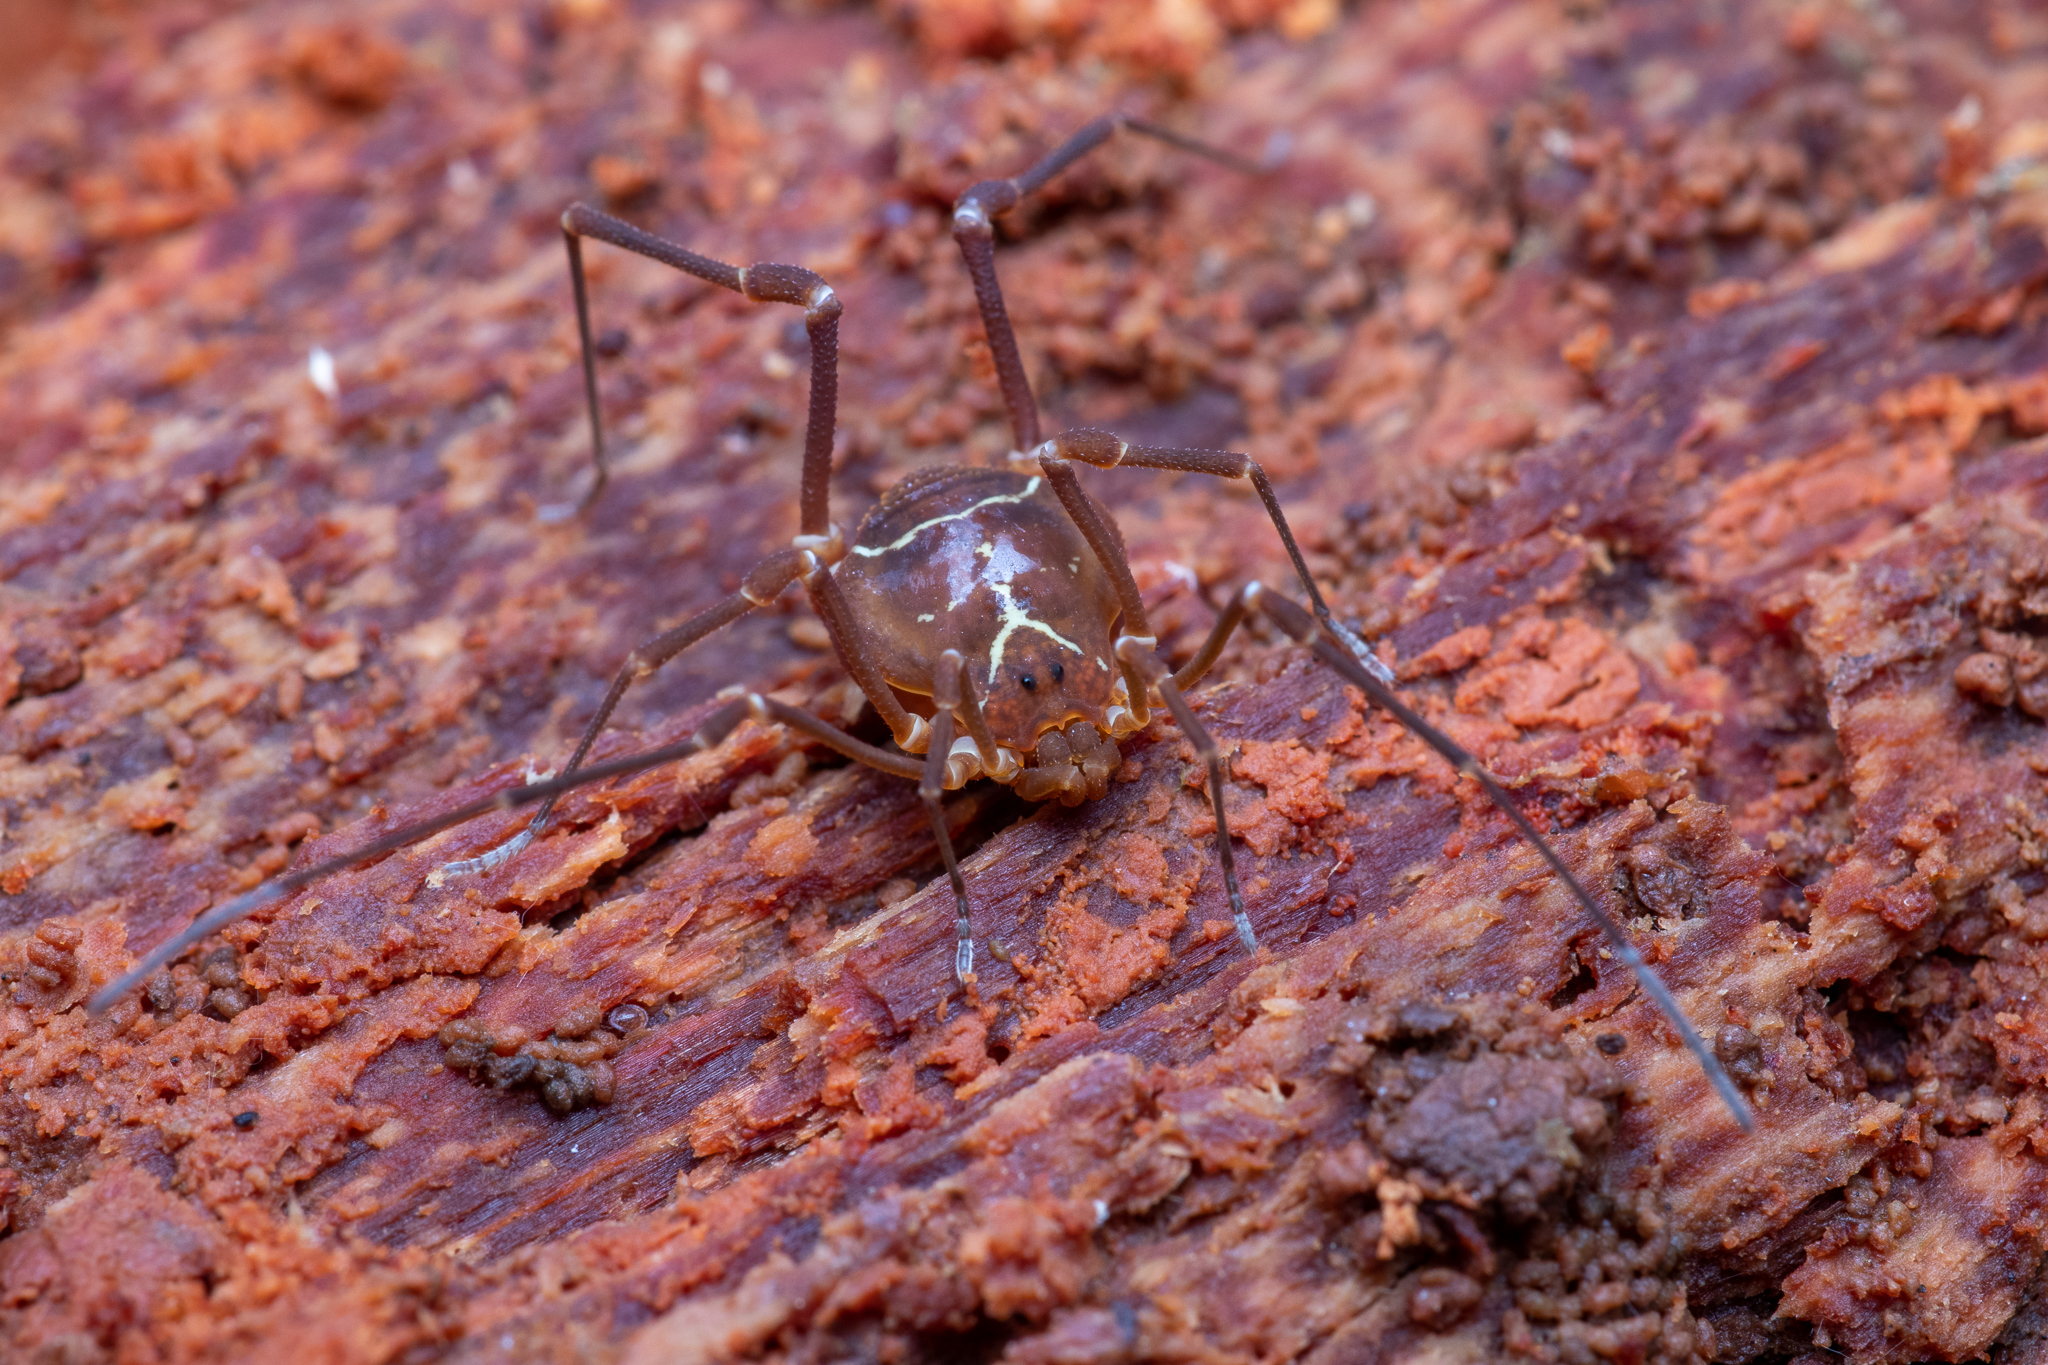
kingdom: Animalia
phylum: Arthropoda
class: Arachnida
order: Opiliones
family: Cosmetidae
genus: Libitioides
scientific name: Libitioides sayi
